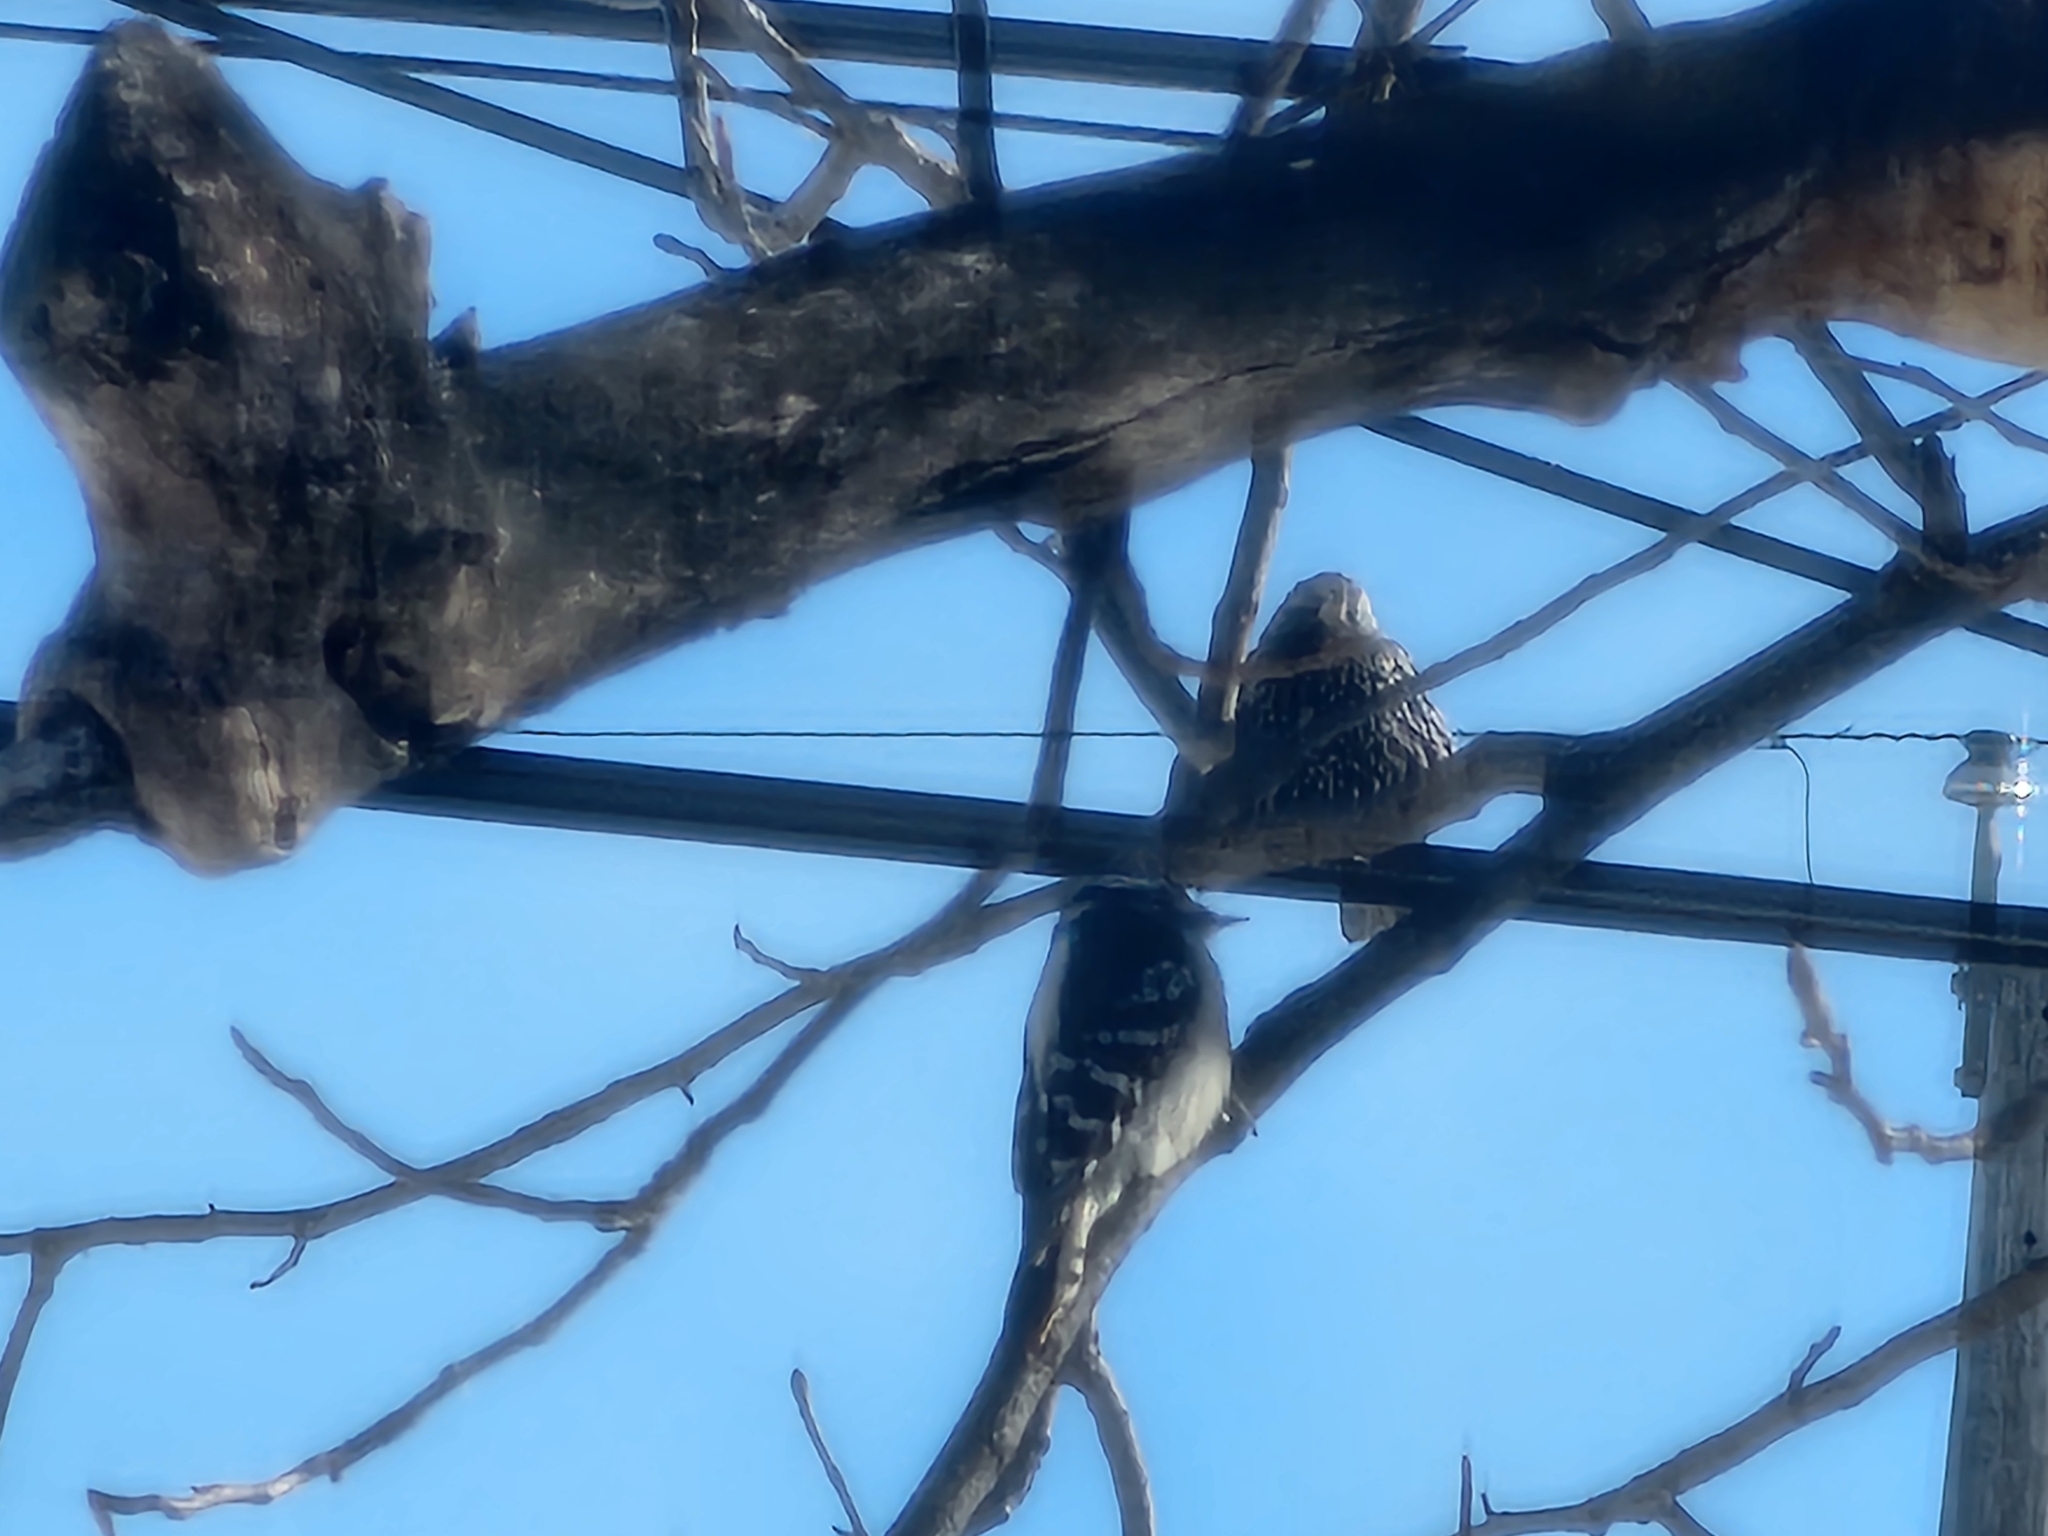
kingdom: Animalia
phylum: Chordata
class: Aves
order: Passeriformes
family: Sturnidae
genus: Sturnus
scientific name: Sturnus vulgaris
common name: Common starling
